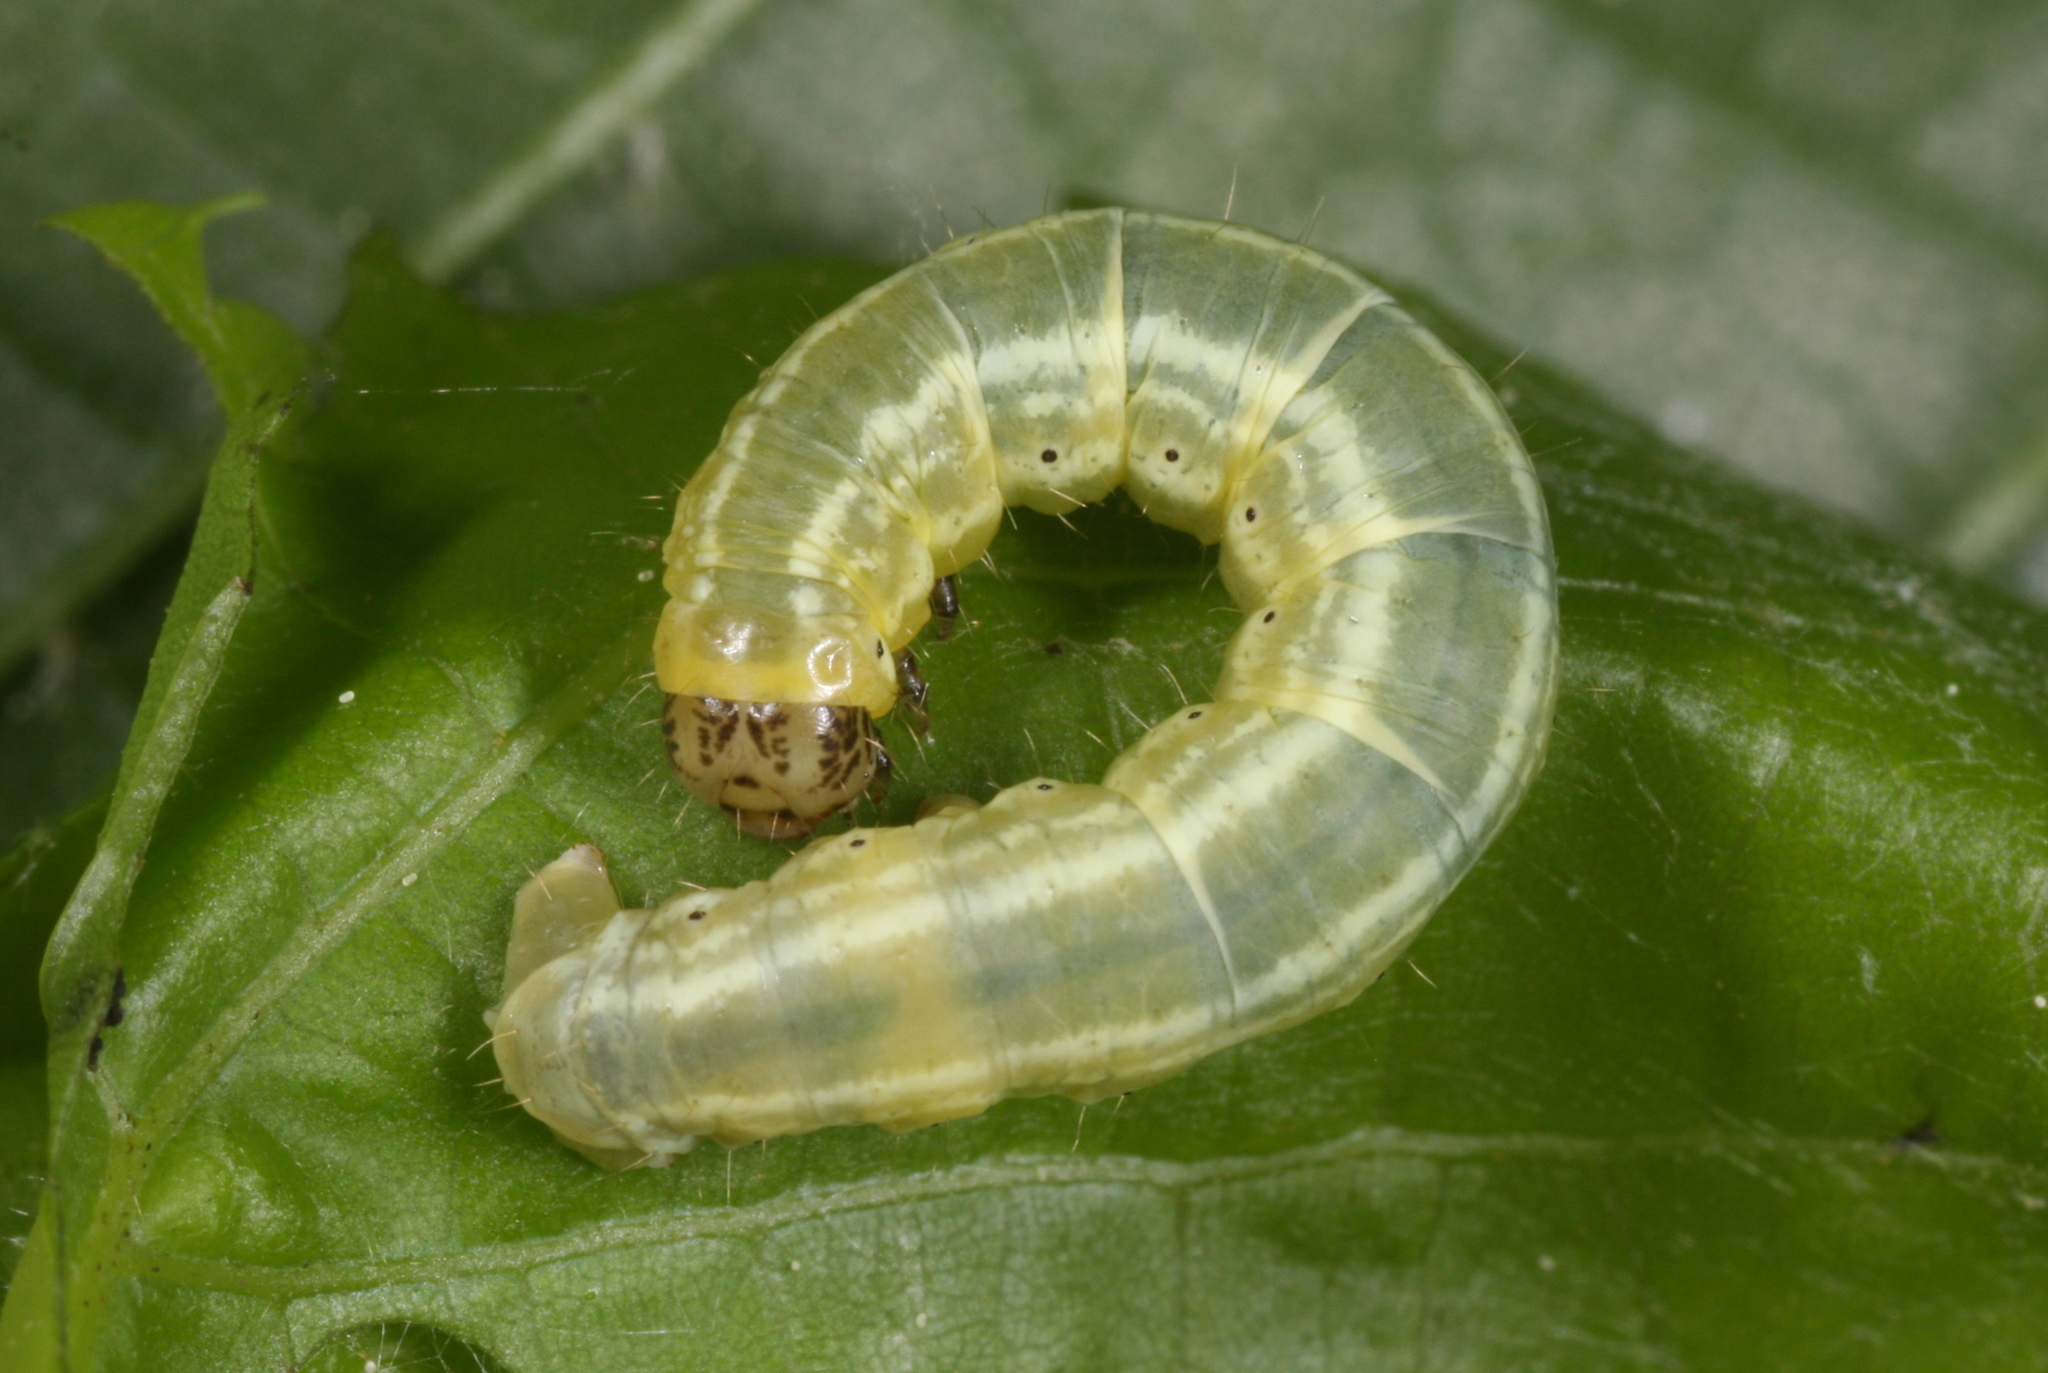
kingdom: Animalia
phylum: Arthropoda
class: Insecta
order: Lepidoptera
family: Geometridae
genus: Operophtera
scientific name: Operophtera fagata
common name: Northern winter moth
